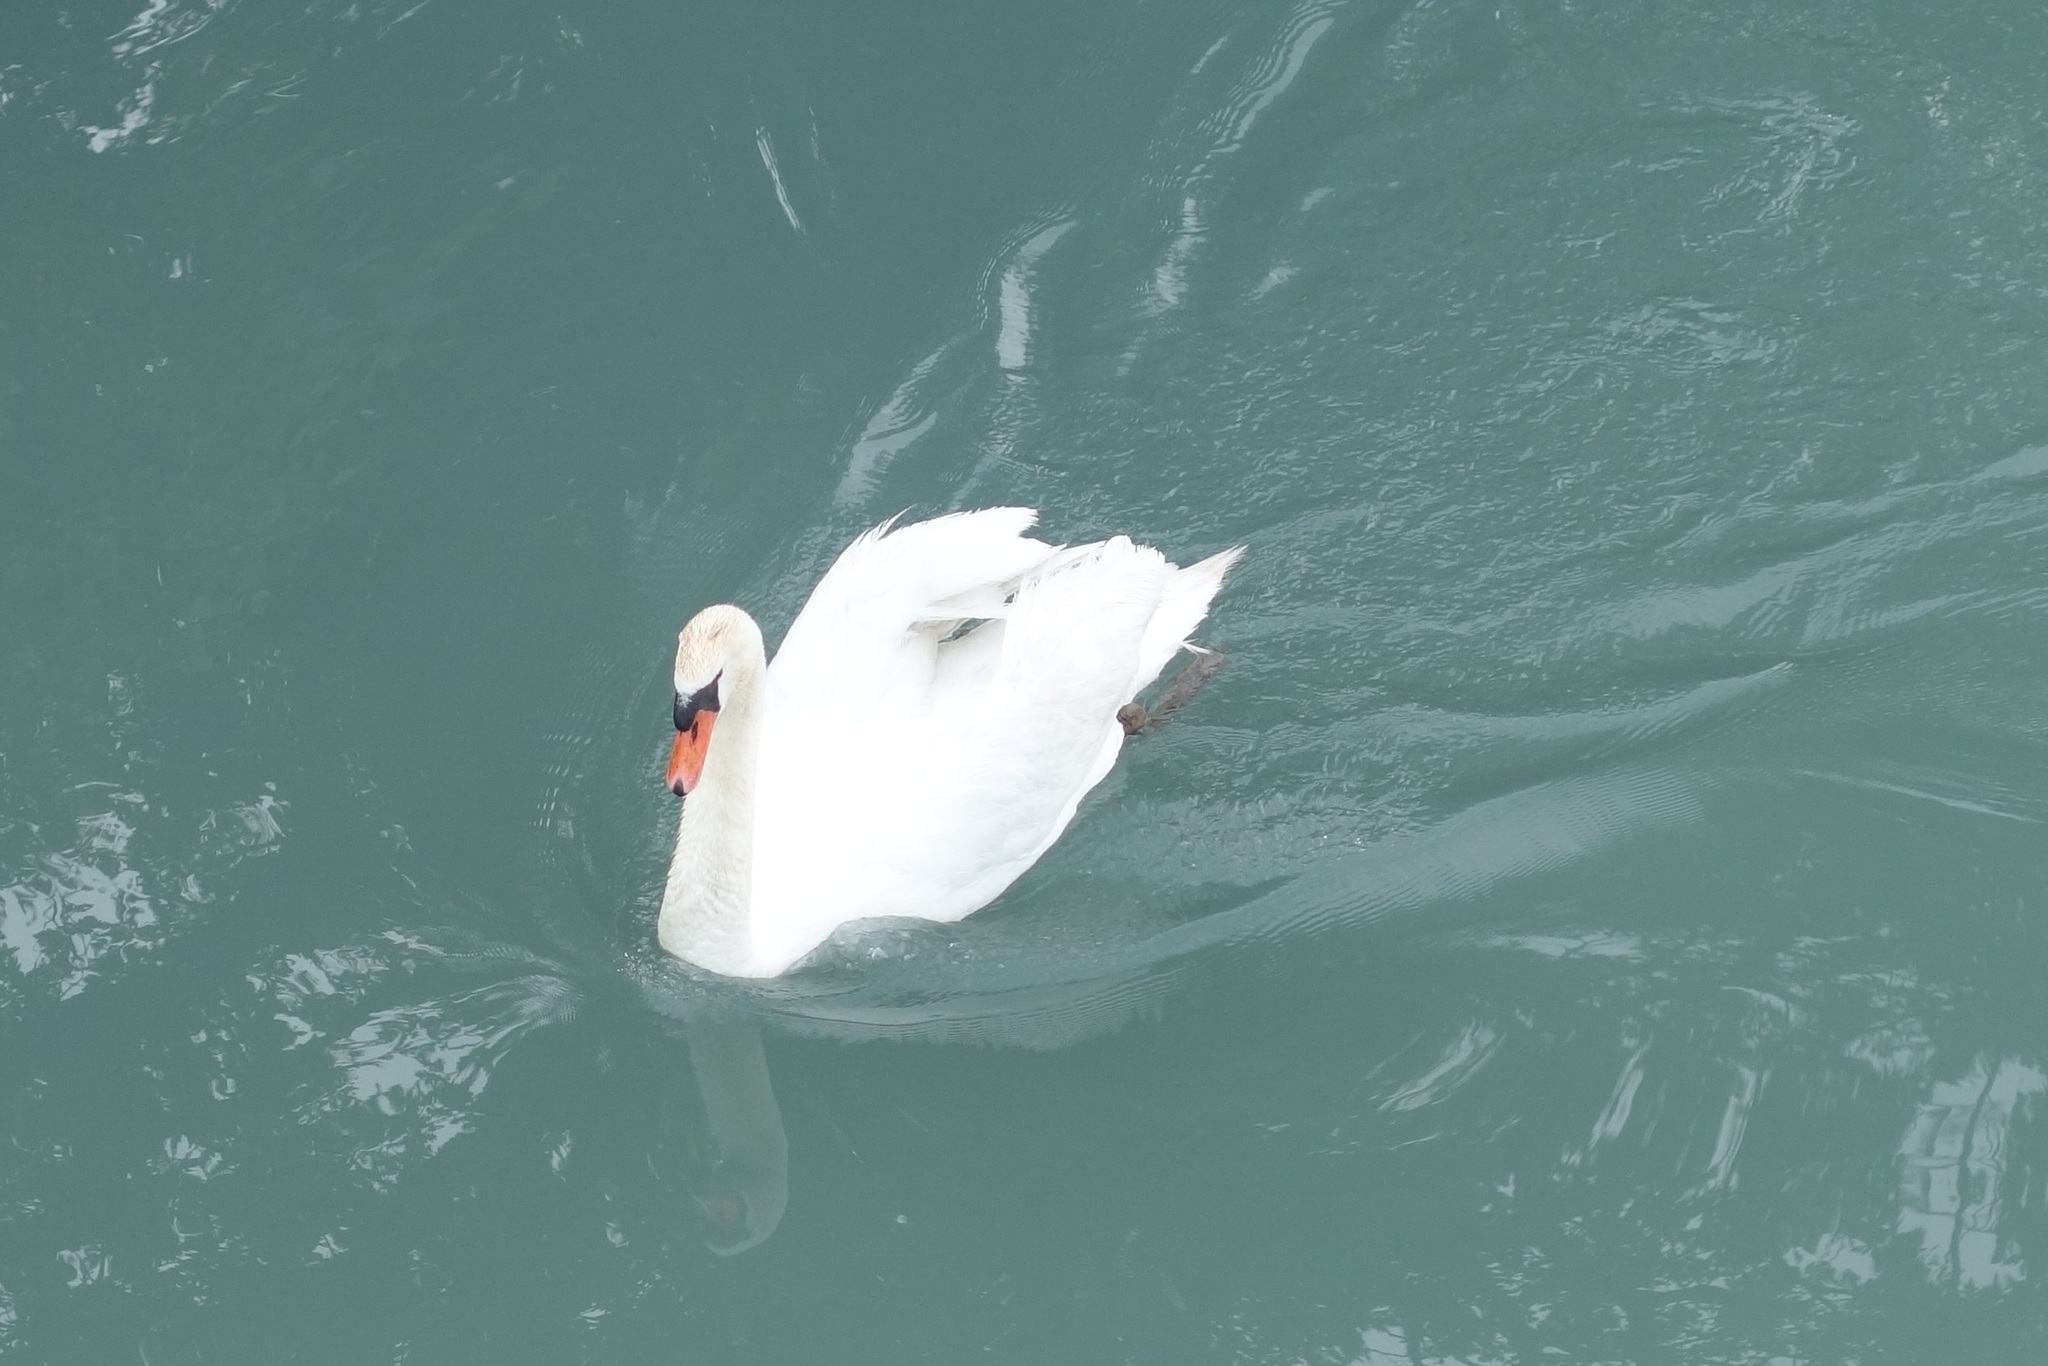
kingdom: Animalia
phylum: Chordata
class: Aves
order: Anseriformes
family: Anatidae
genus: Cygnus
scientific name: Cygnus olor
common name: Mute swan
